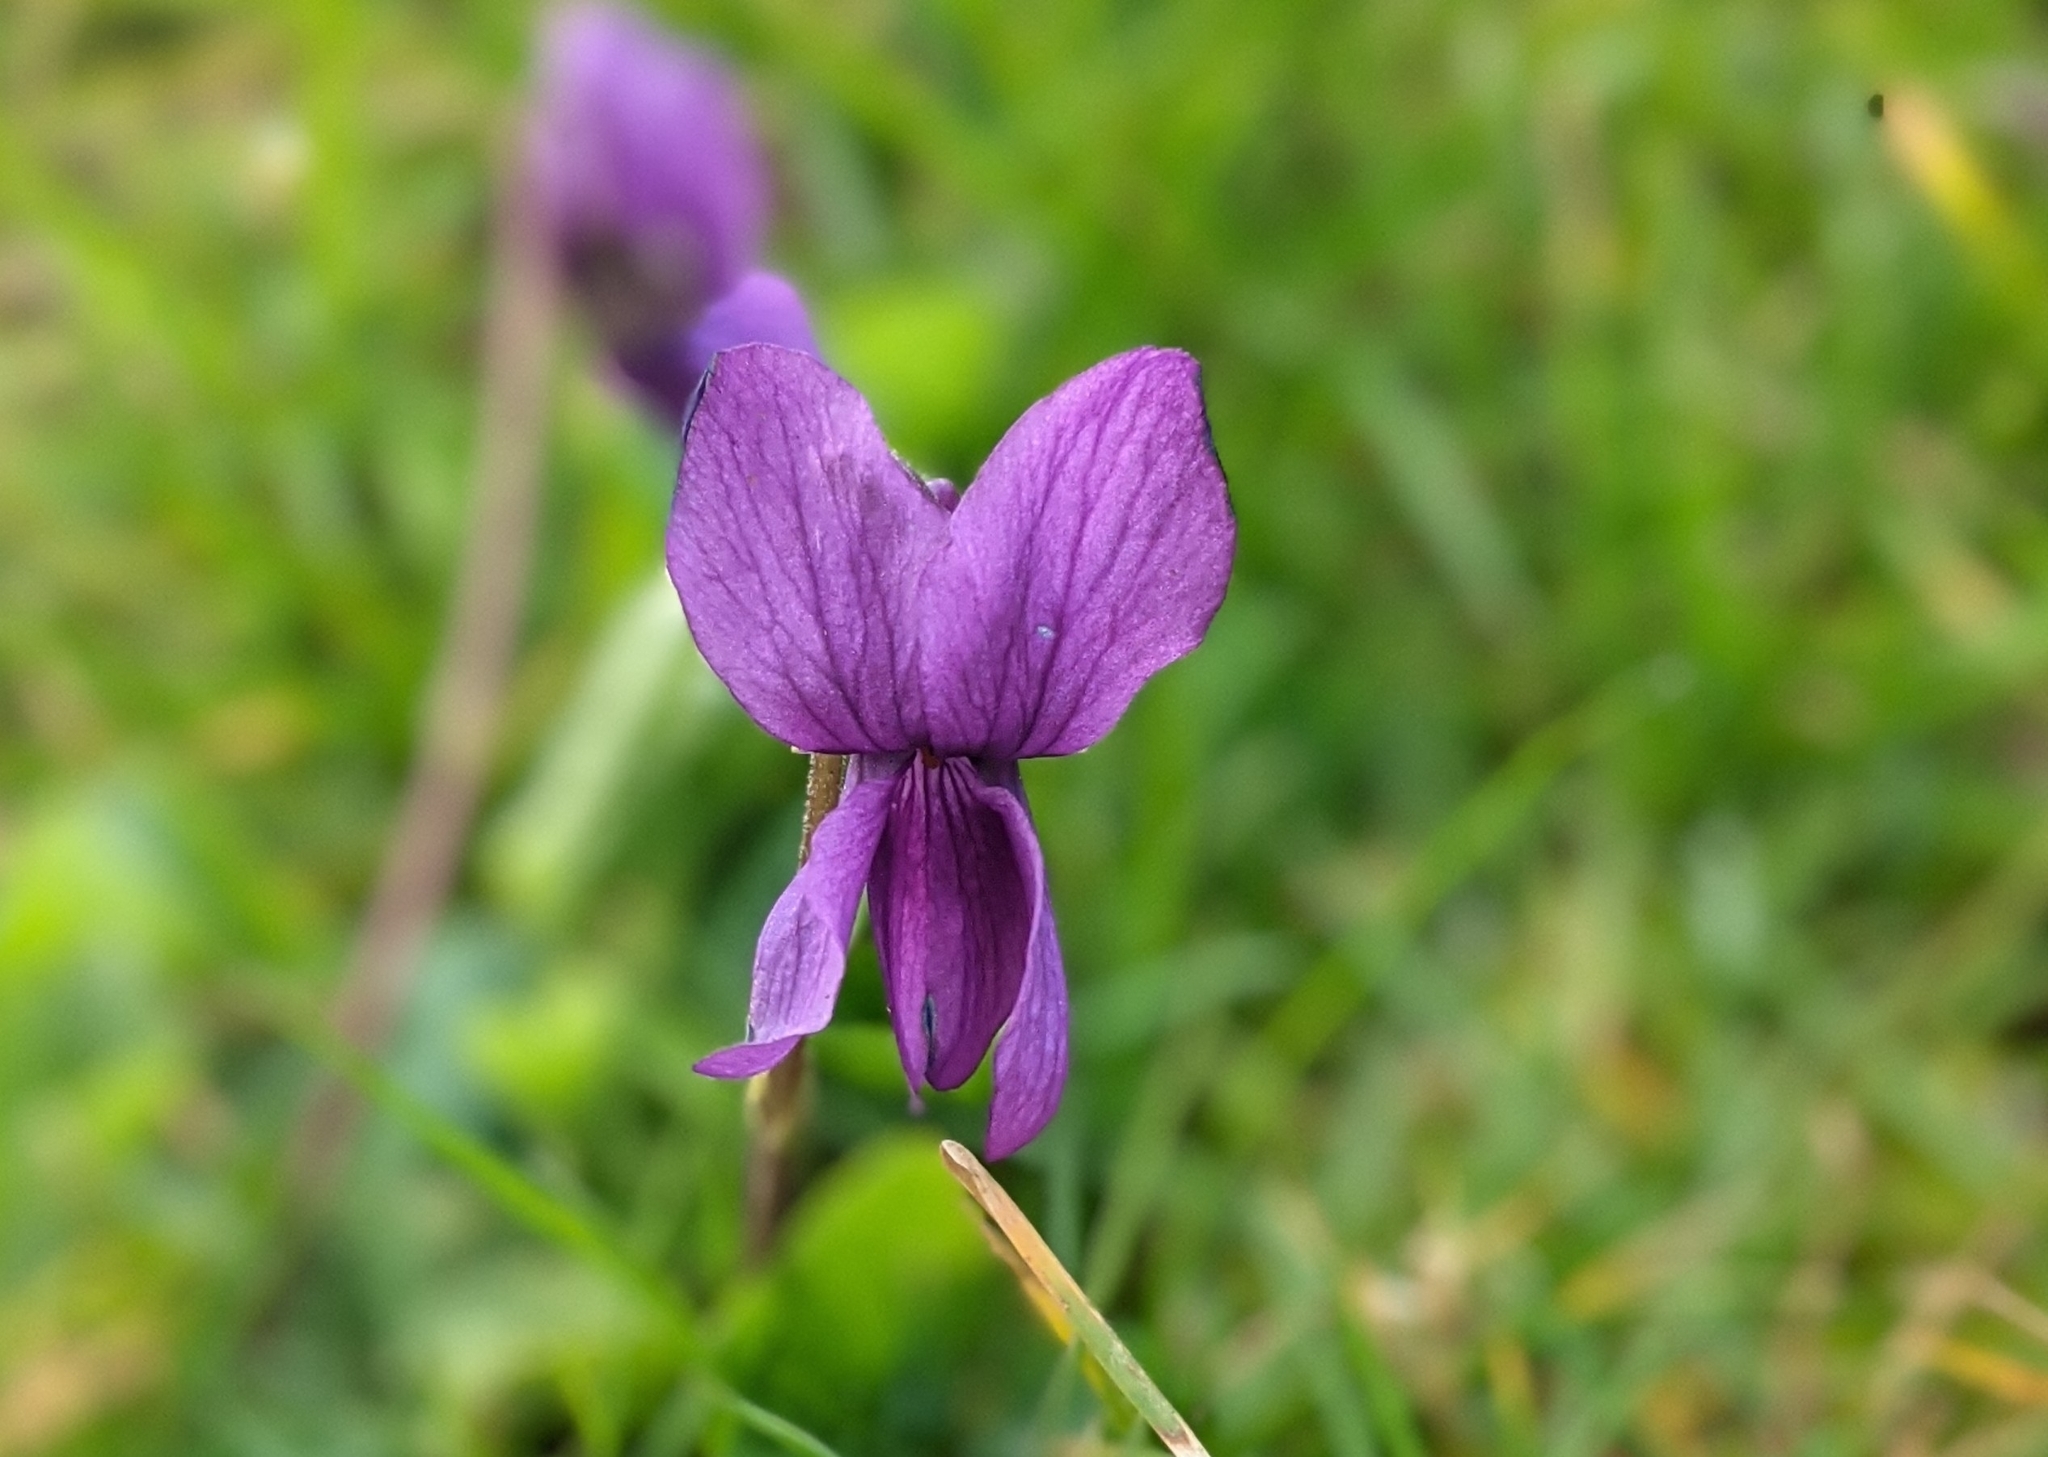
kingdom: Plantae
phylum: Tracheophyta
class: Magnoliopsida
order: Malpighiales
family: Violaceae
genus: Viola
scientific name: Viola odorata
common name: Sweet violet
